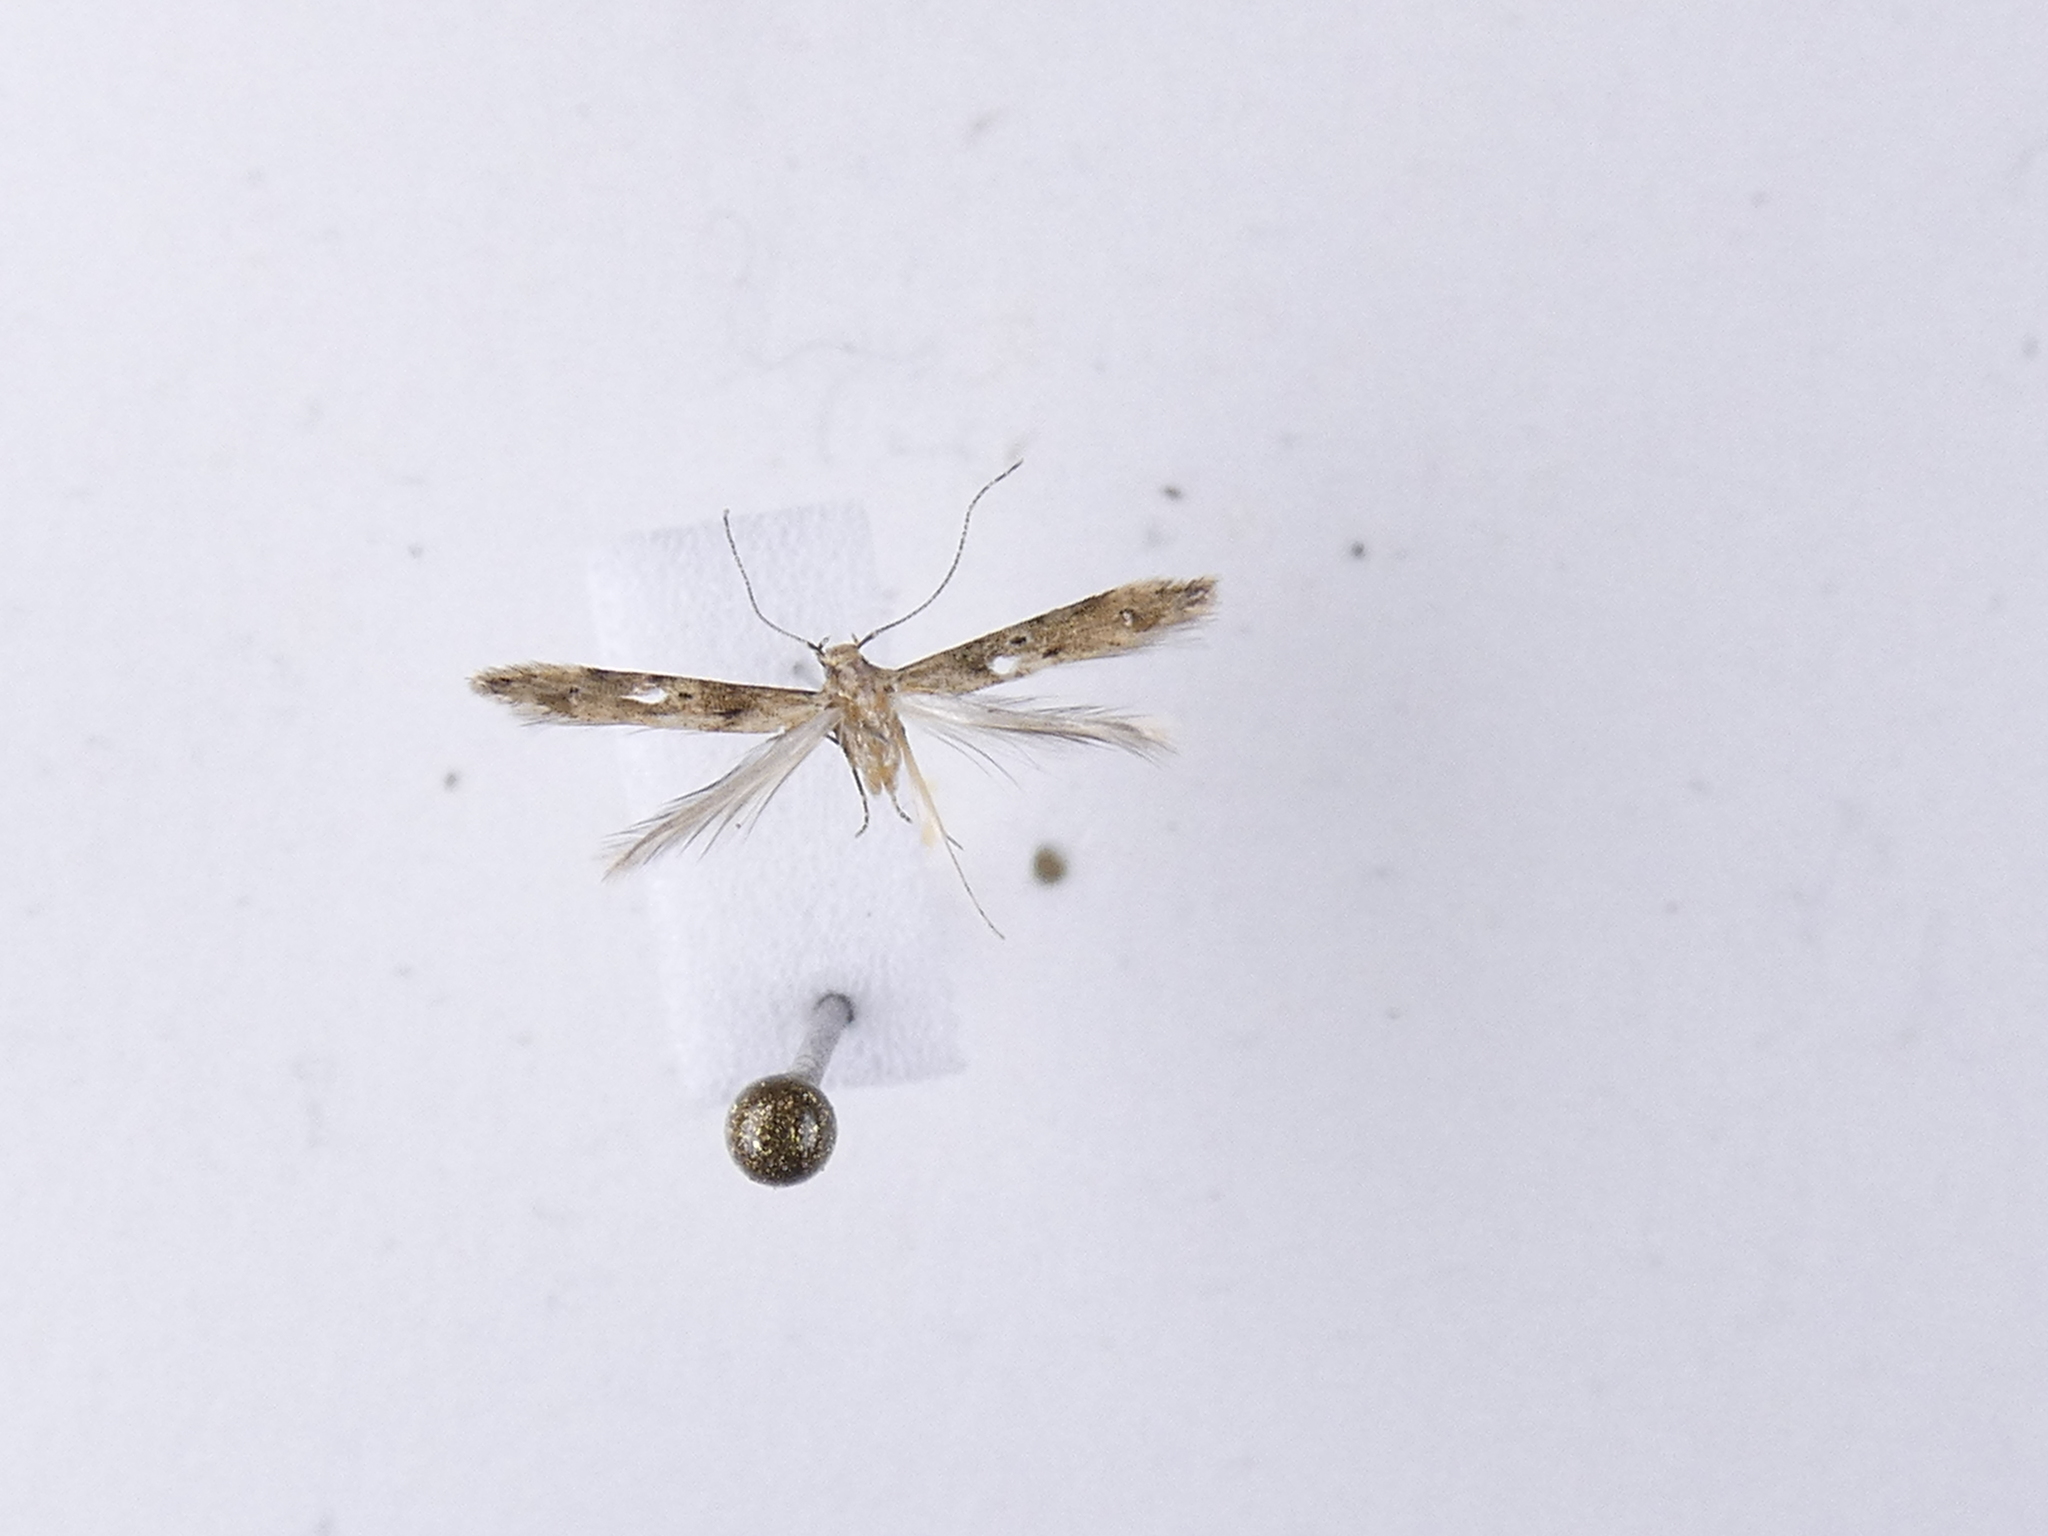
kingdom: Animalia
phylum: Arthropoda
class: Insecta
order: Lepidoptera
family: Elachistidae
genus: Microcolona
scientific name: Microcolona limodes
